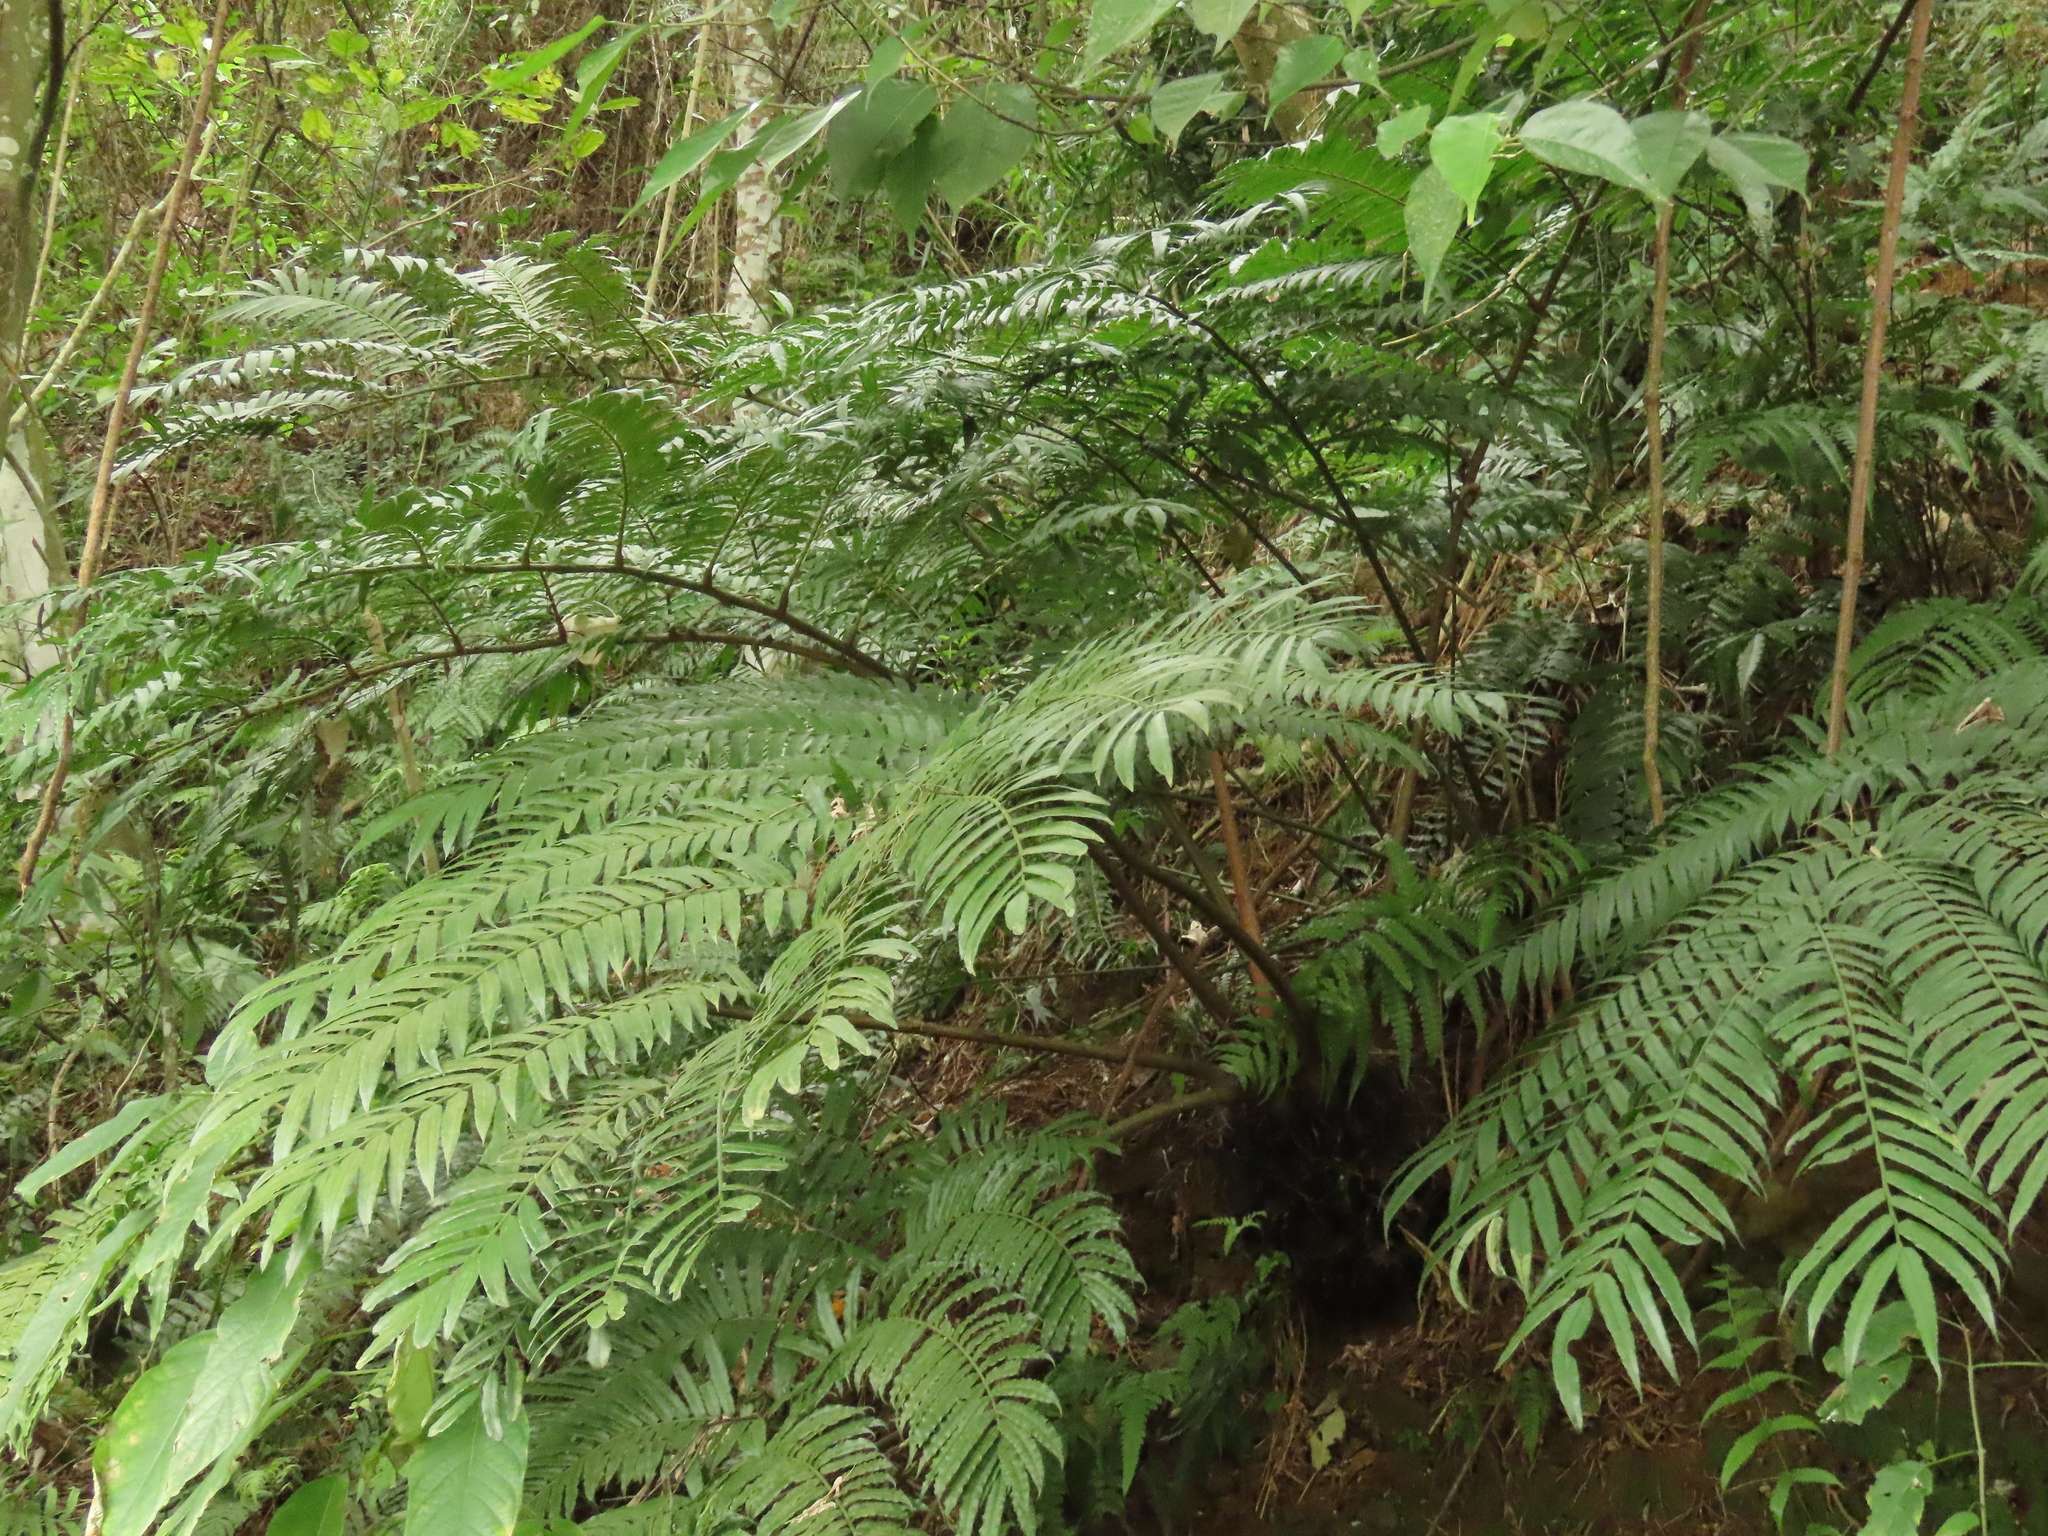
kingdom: Plantae
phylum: Tracheophyta
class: Polypodiopsida
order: Marattiales
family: Marattiaceae
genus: Angiopteris
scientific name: Angiopteris lygodiifolia
